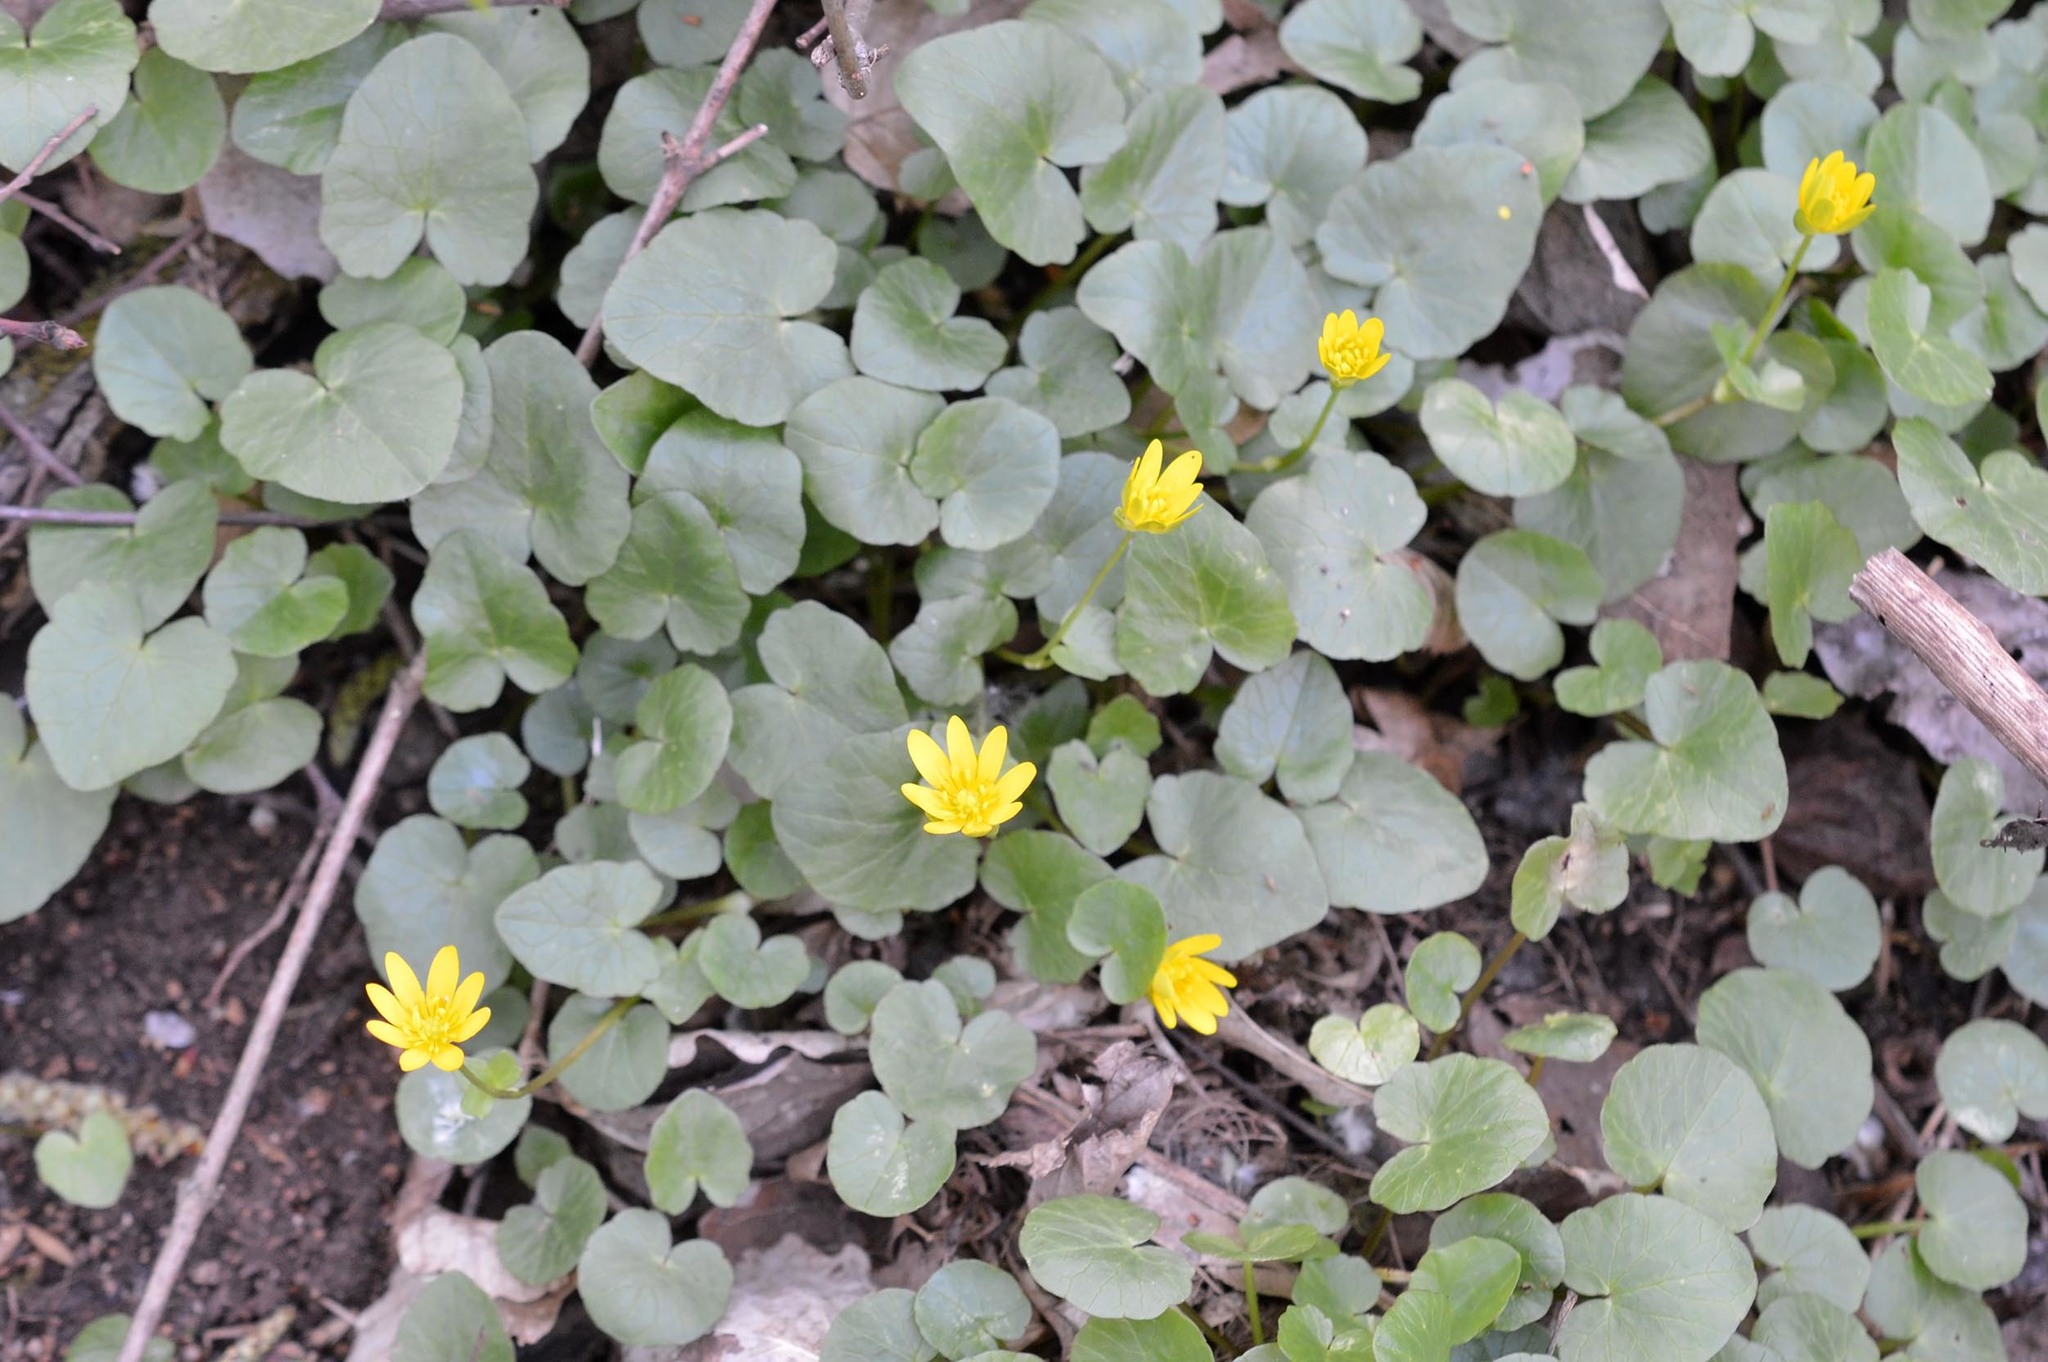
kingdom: Plantae
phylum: Tracheophyta
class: Magnoliopsida
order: Ranunculales
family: Ranunculaceae
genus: Ficaria
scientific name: Ficaria verna
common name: Lesser celandine
